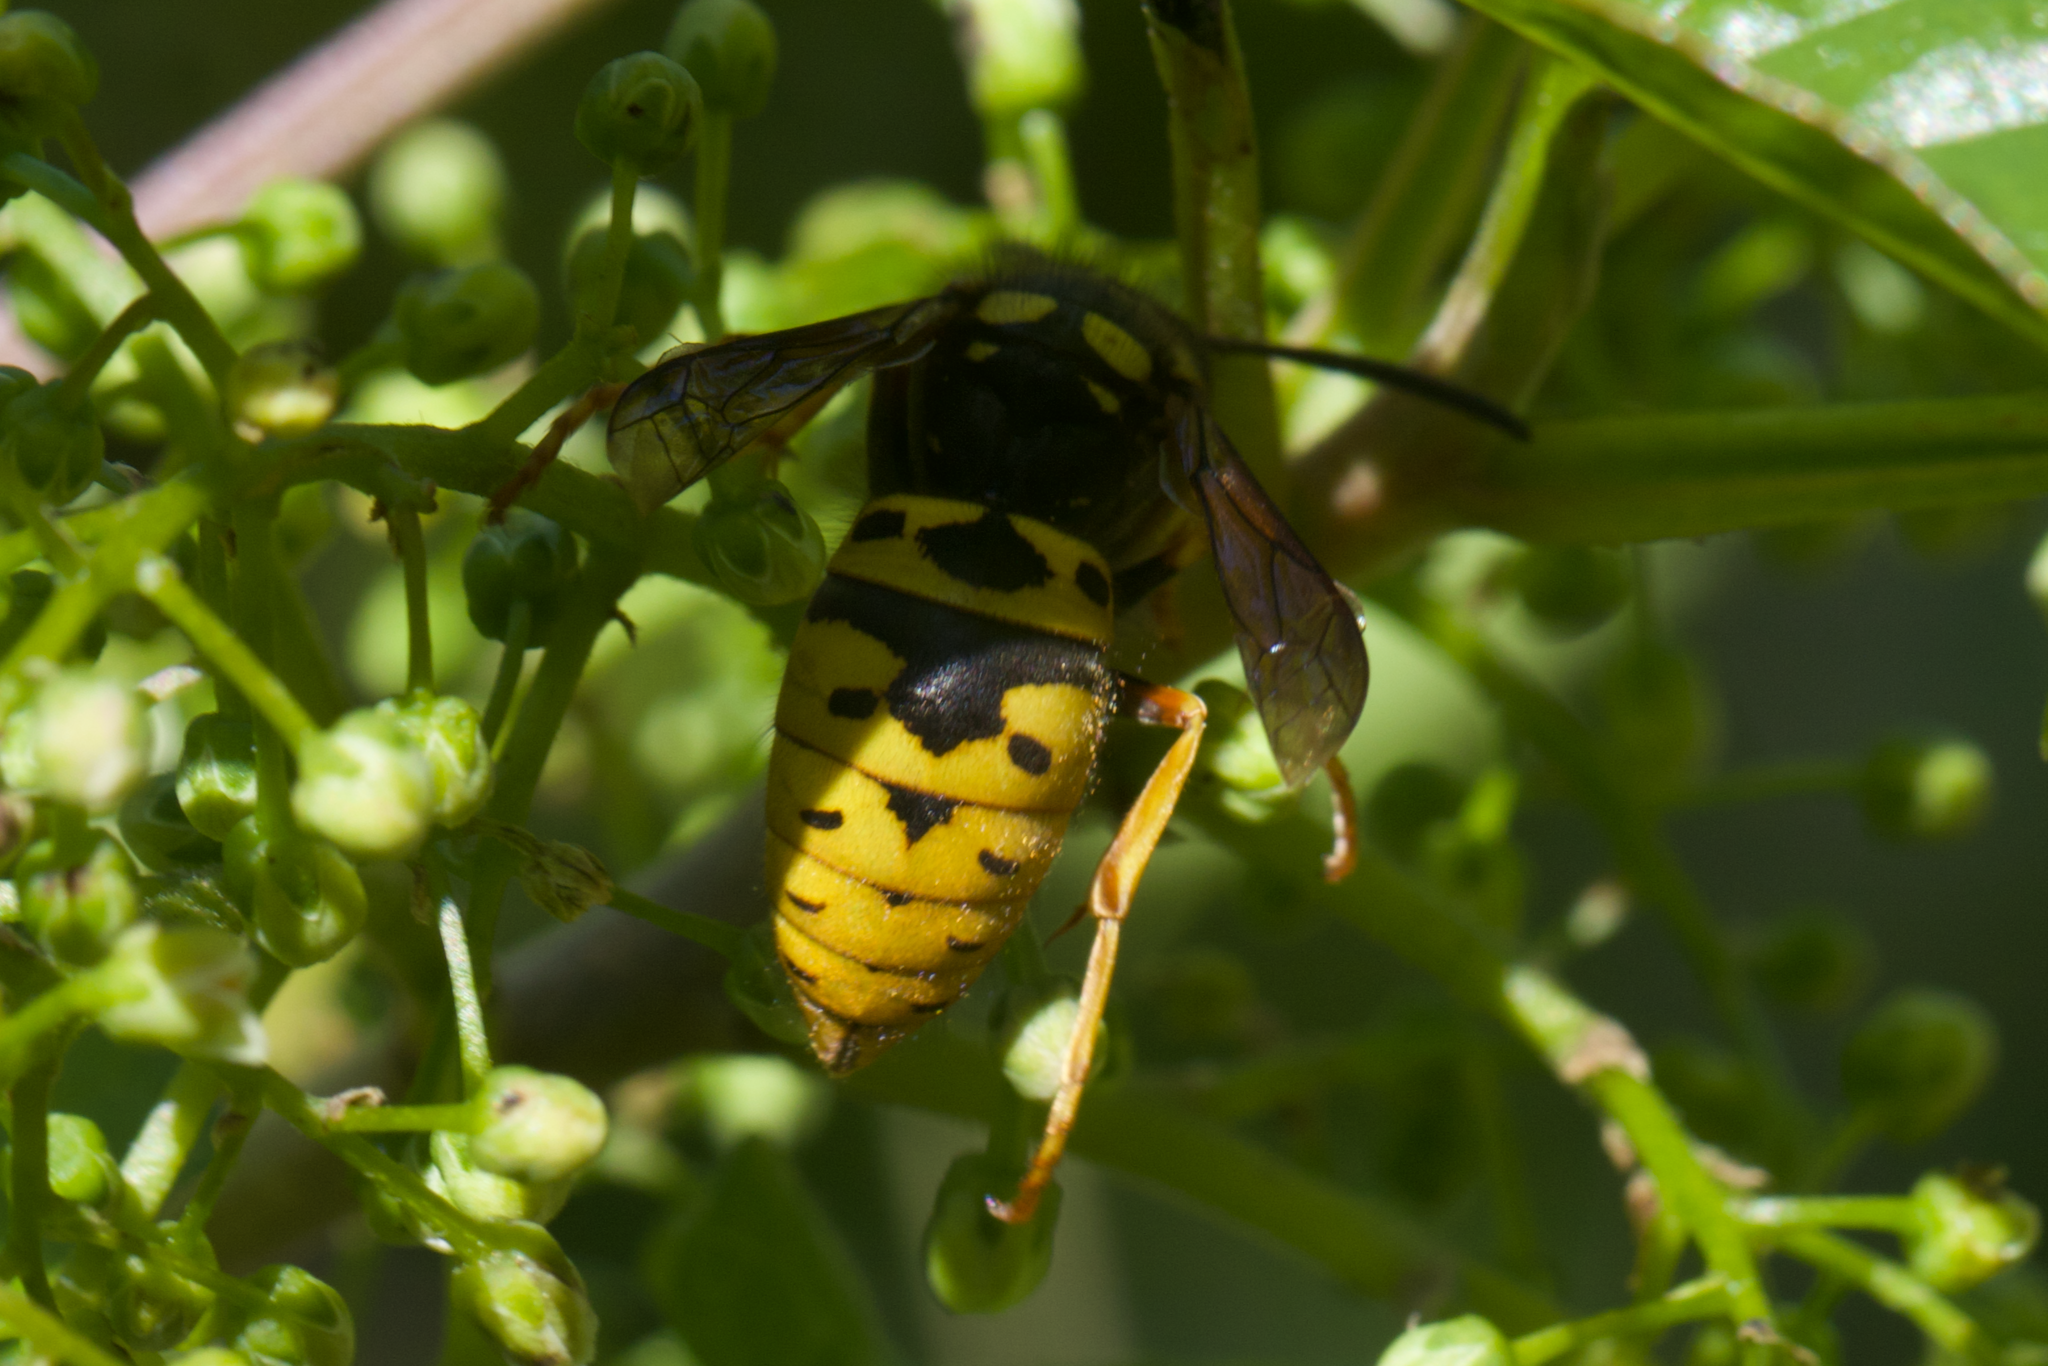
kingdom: Animalia
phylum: Arthropoda
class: Insecta
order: Hymenoptera
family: Vespidae
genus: Vespula
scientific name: Vespula atropilosa
